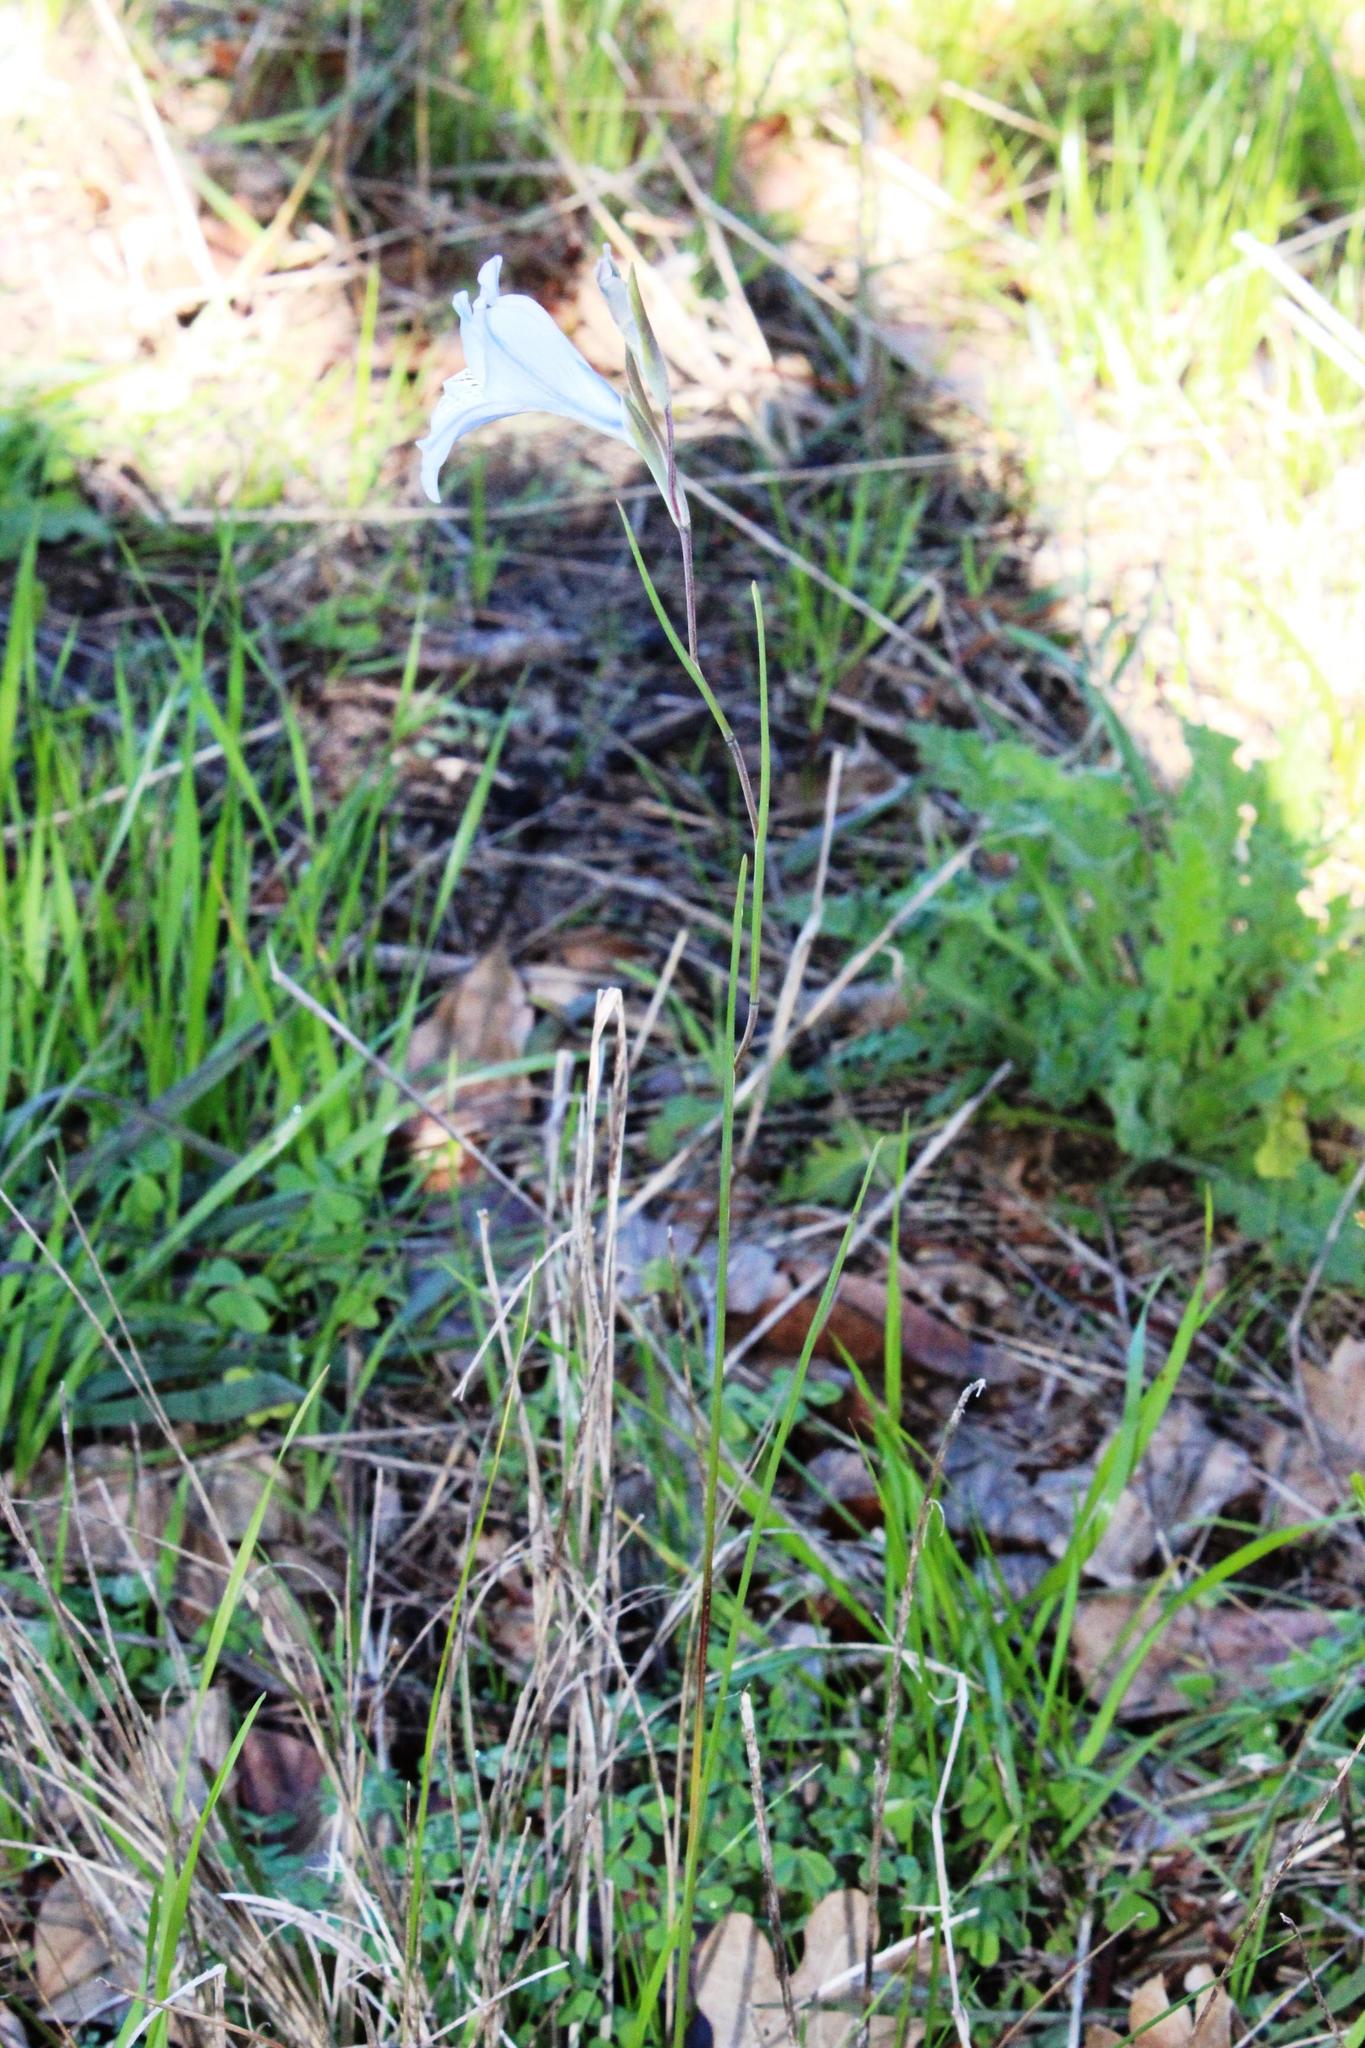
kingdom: Plantae
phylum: Tracheophyta
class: Liliopsida
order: Asparagales
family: Iridaceae
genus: Gladiolus
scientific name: Gladiolus gracilis
